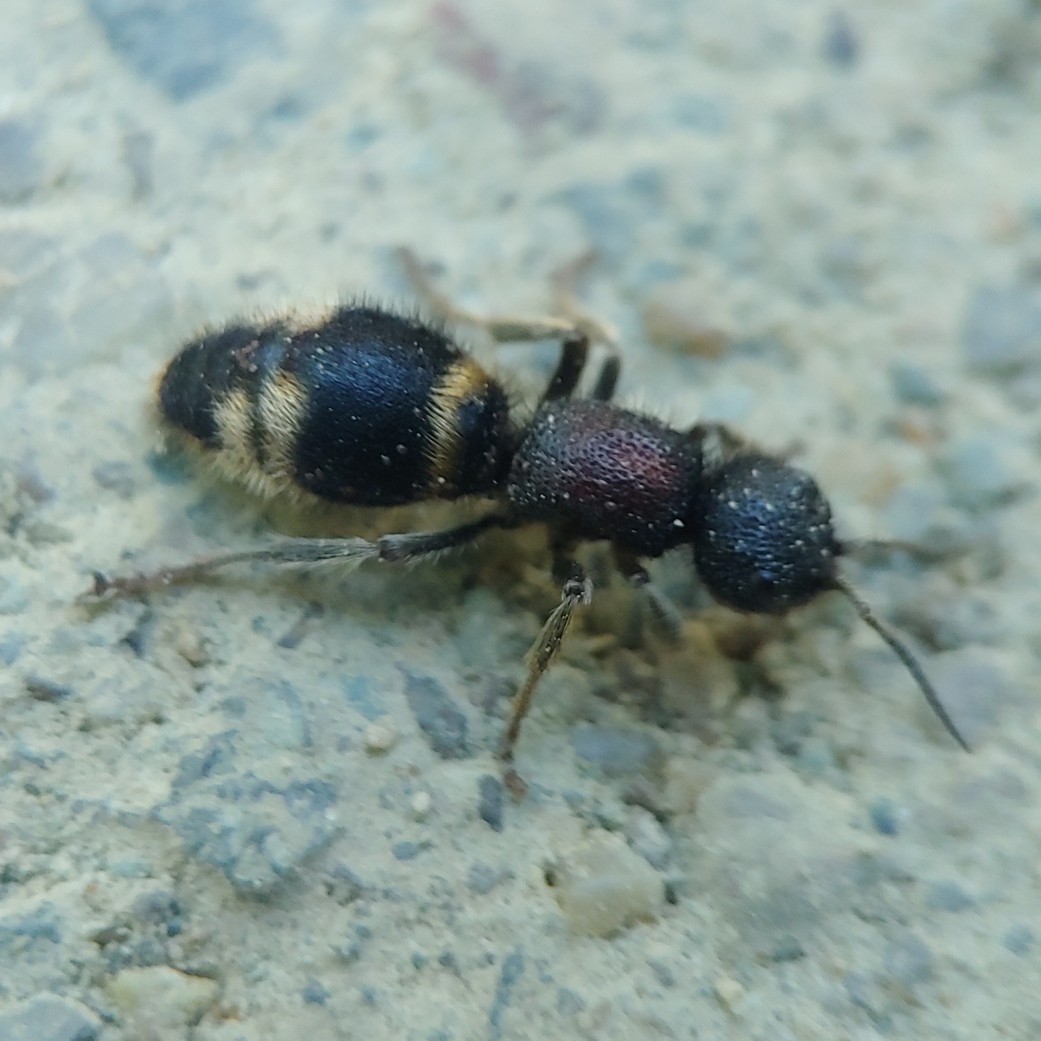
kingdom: Animalia
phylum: Arthropoda
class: Insecta
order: Hymenoptera
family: Mutillidae
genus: Mutilla
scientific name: Mutilla mikado
